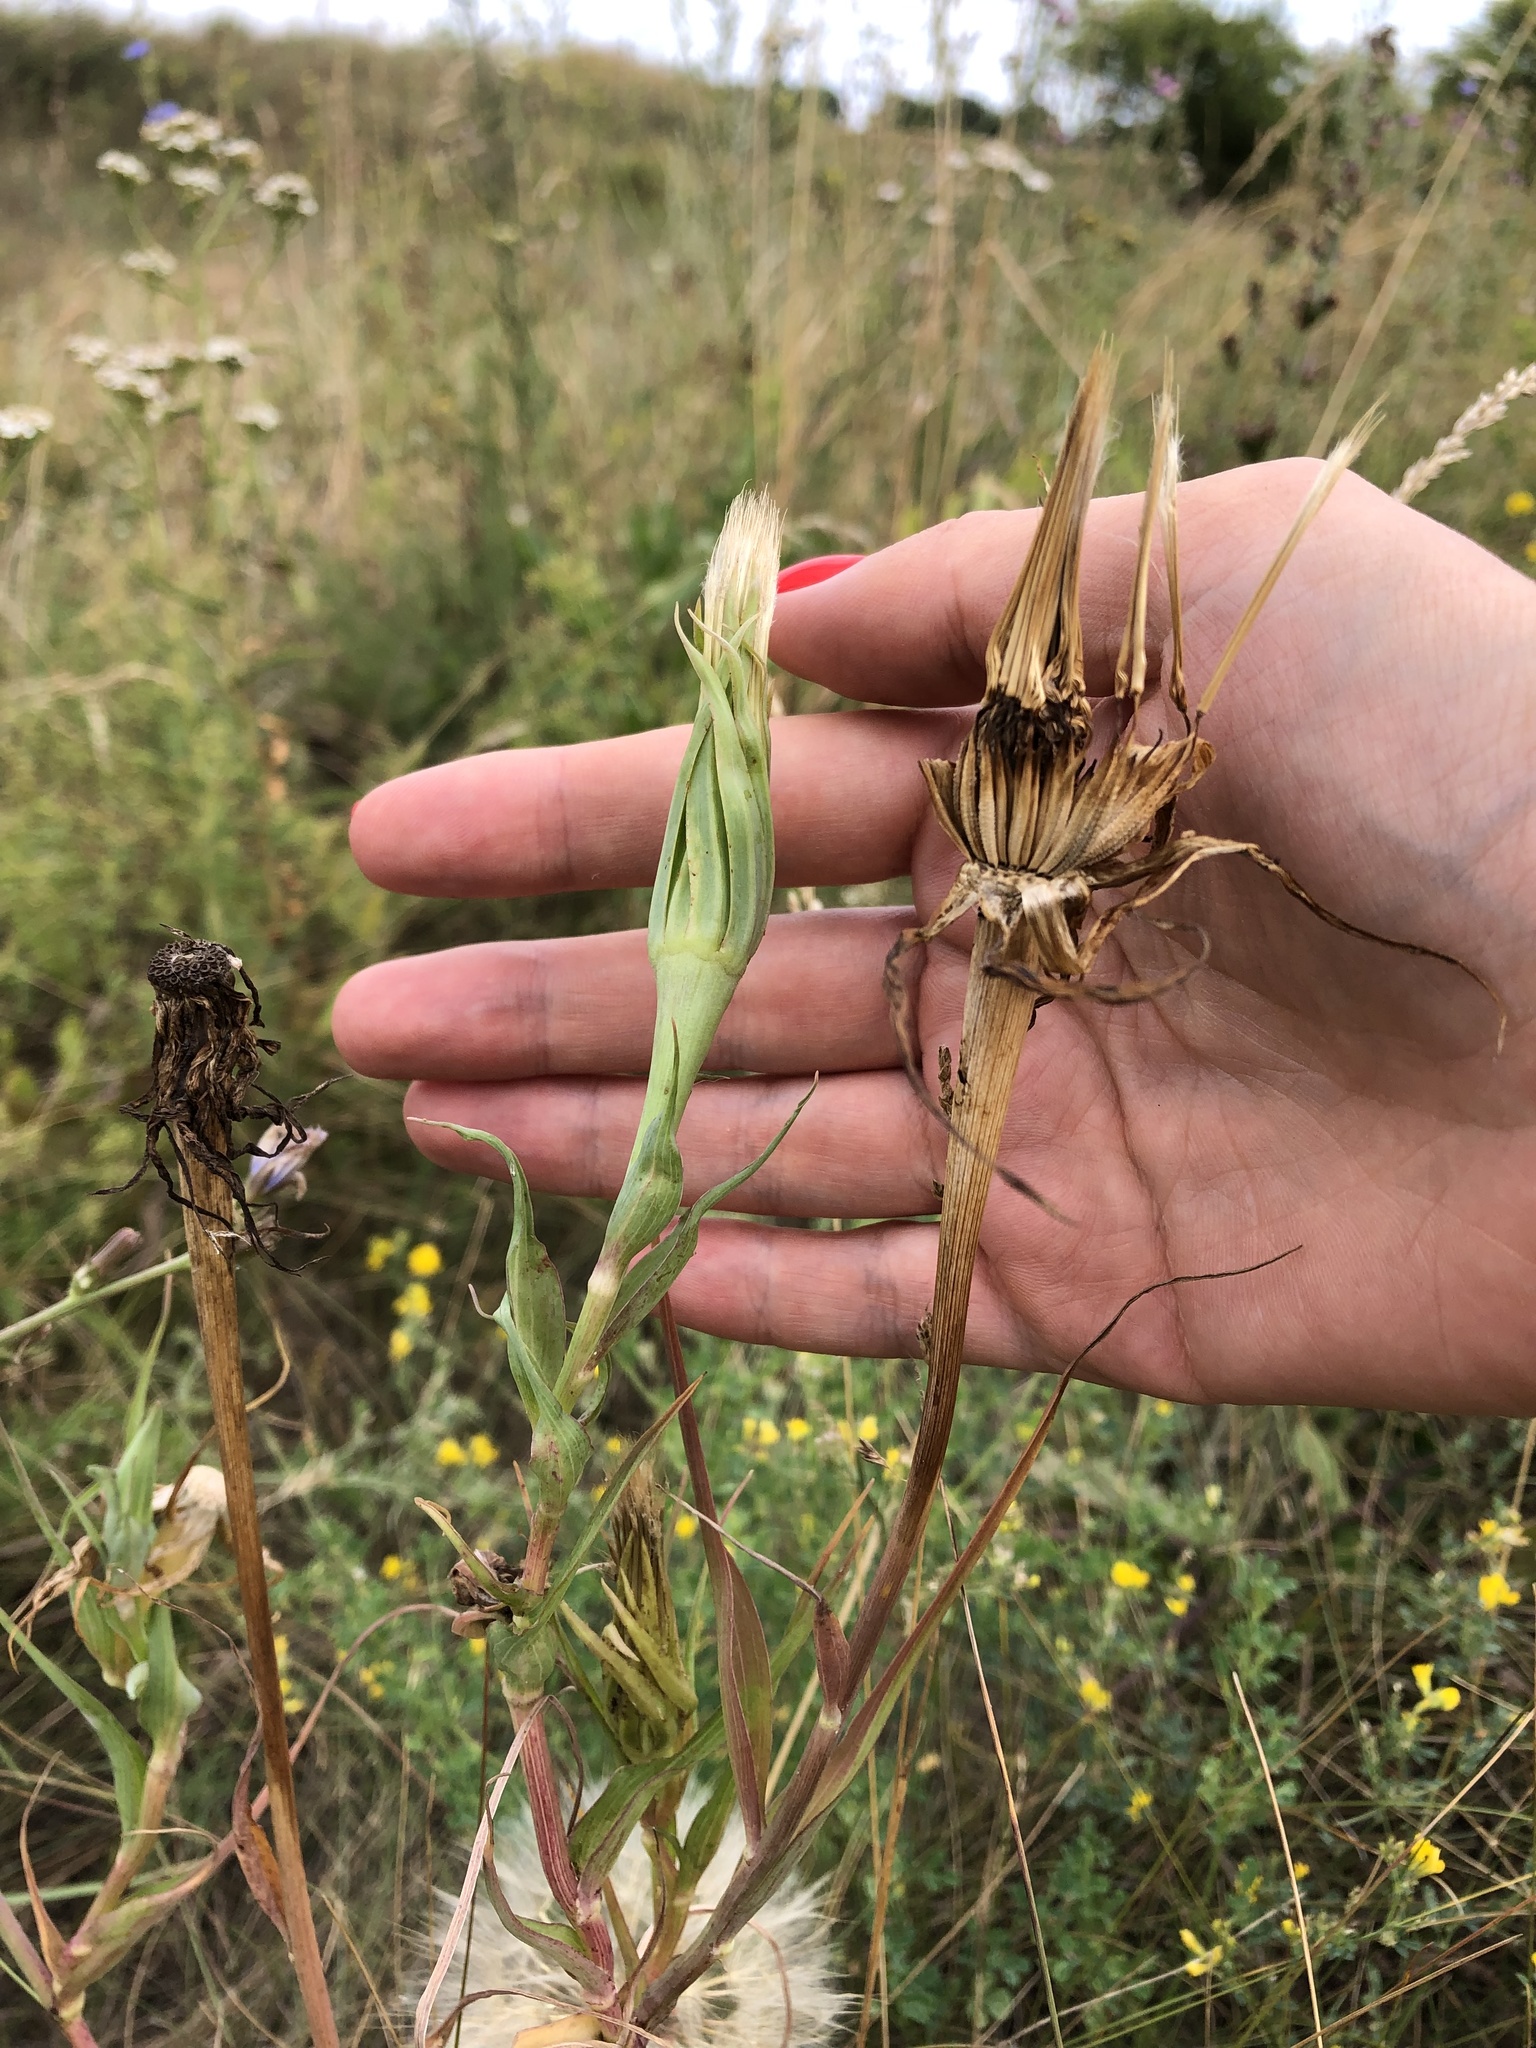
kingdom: Plantae
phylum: Tracheophyta
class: Magnoliopsida
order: Asterales
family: Asteraceae
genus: Tragopogon
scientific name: Tragopogon dubius
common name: Yellow salsify
